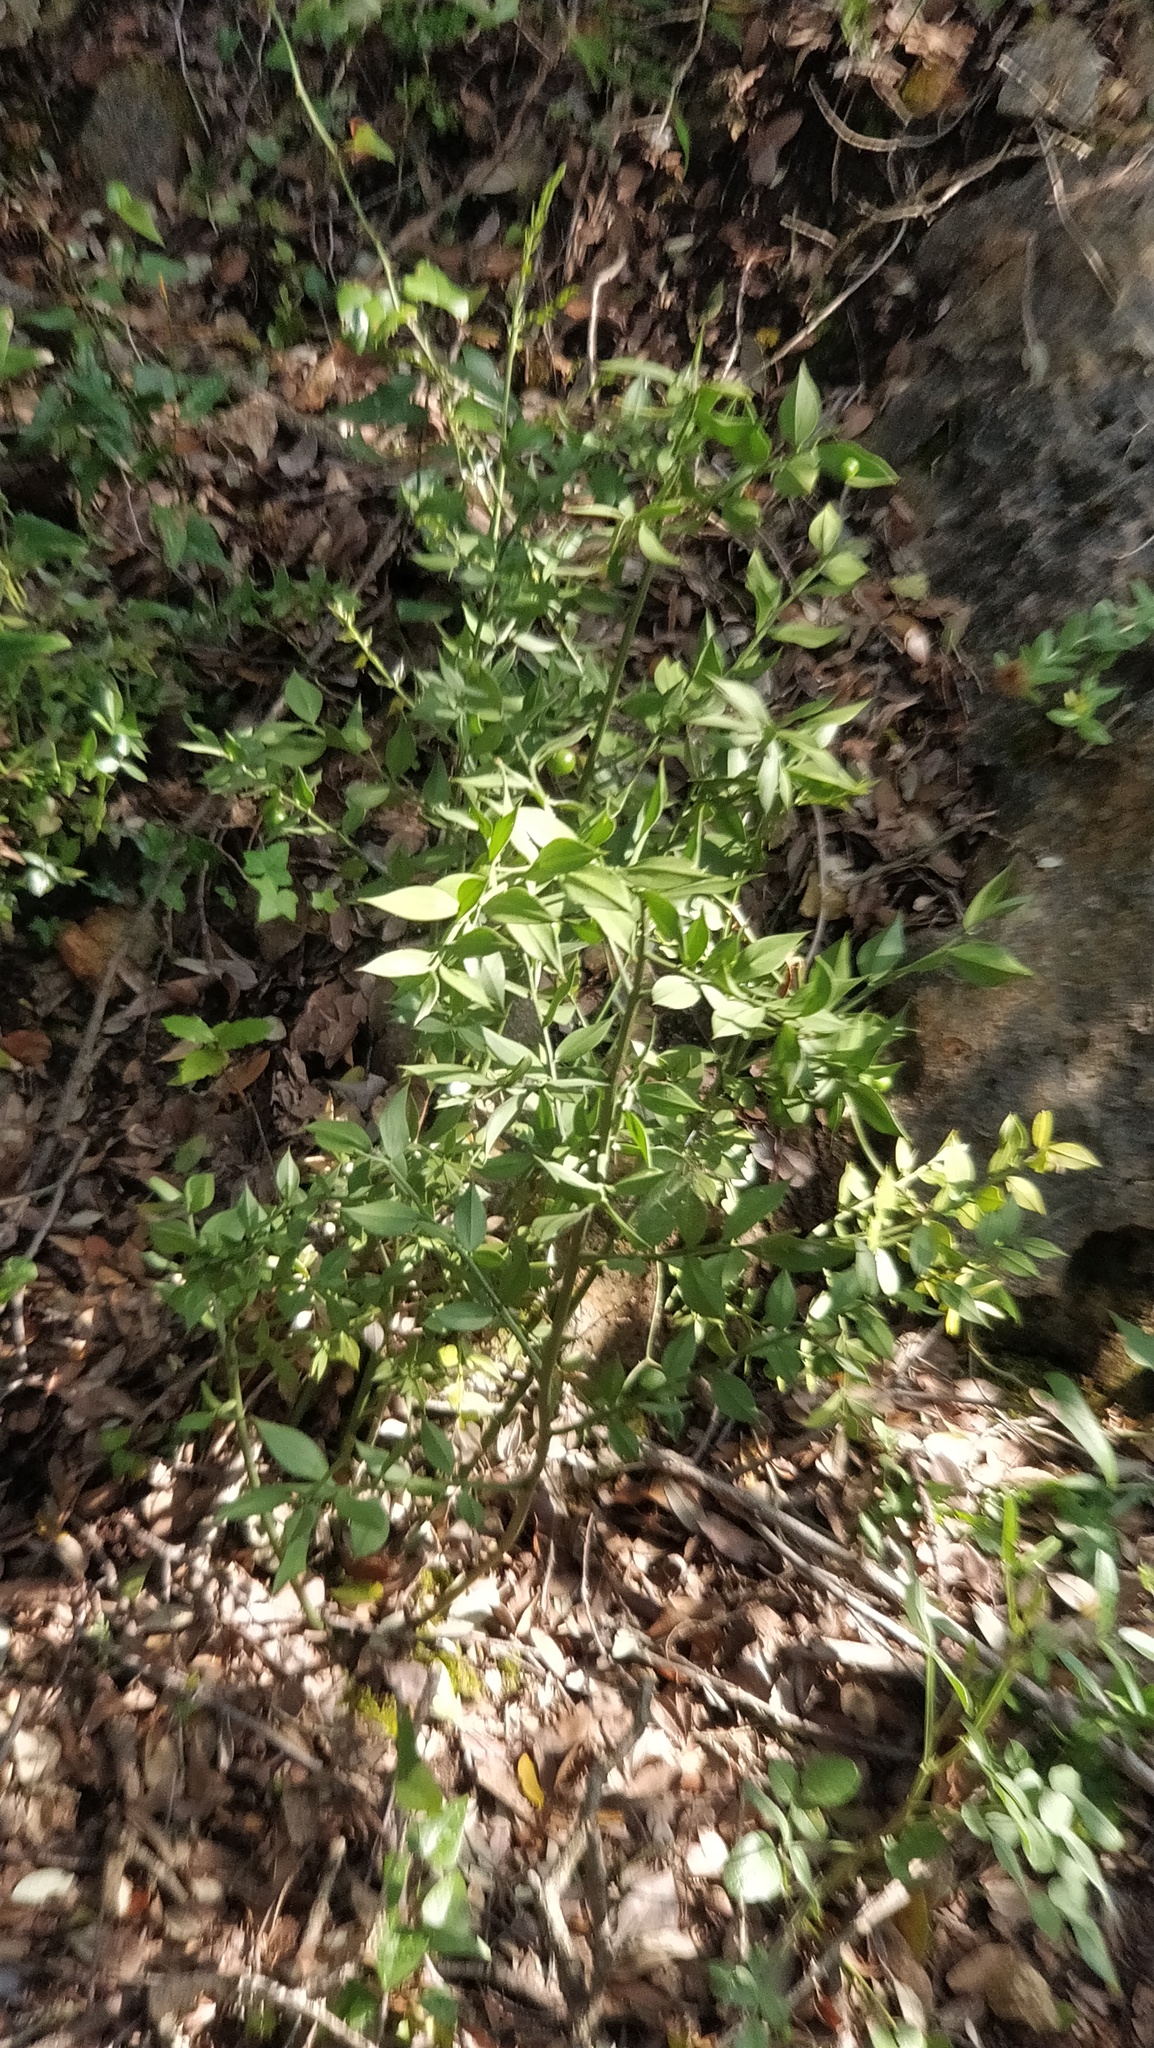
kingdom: Plantae
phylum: Tracheophyta
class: Liliopsida
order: Asparagales
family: Asparagaceae
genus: Ruscus
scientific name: Ruscus aculeatus
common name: Butcher's-broom
